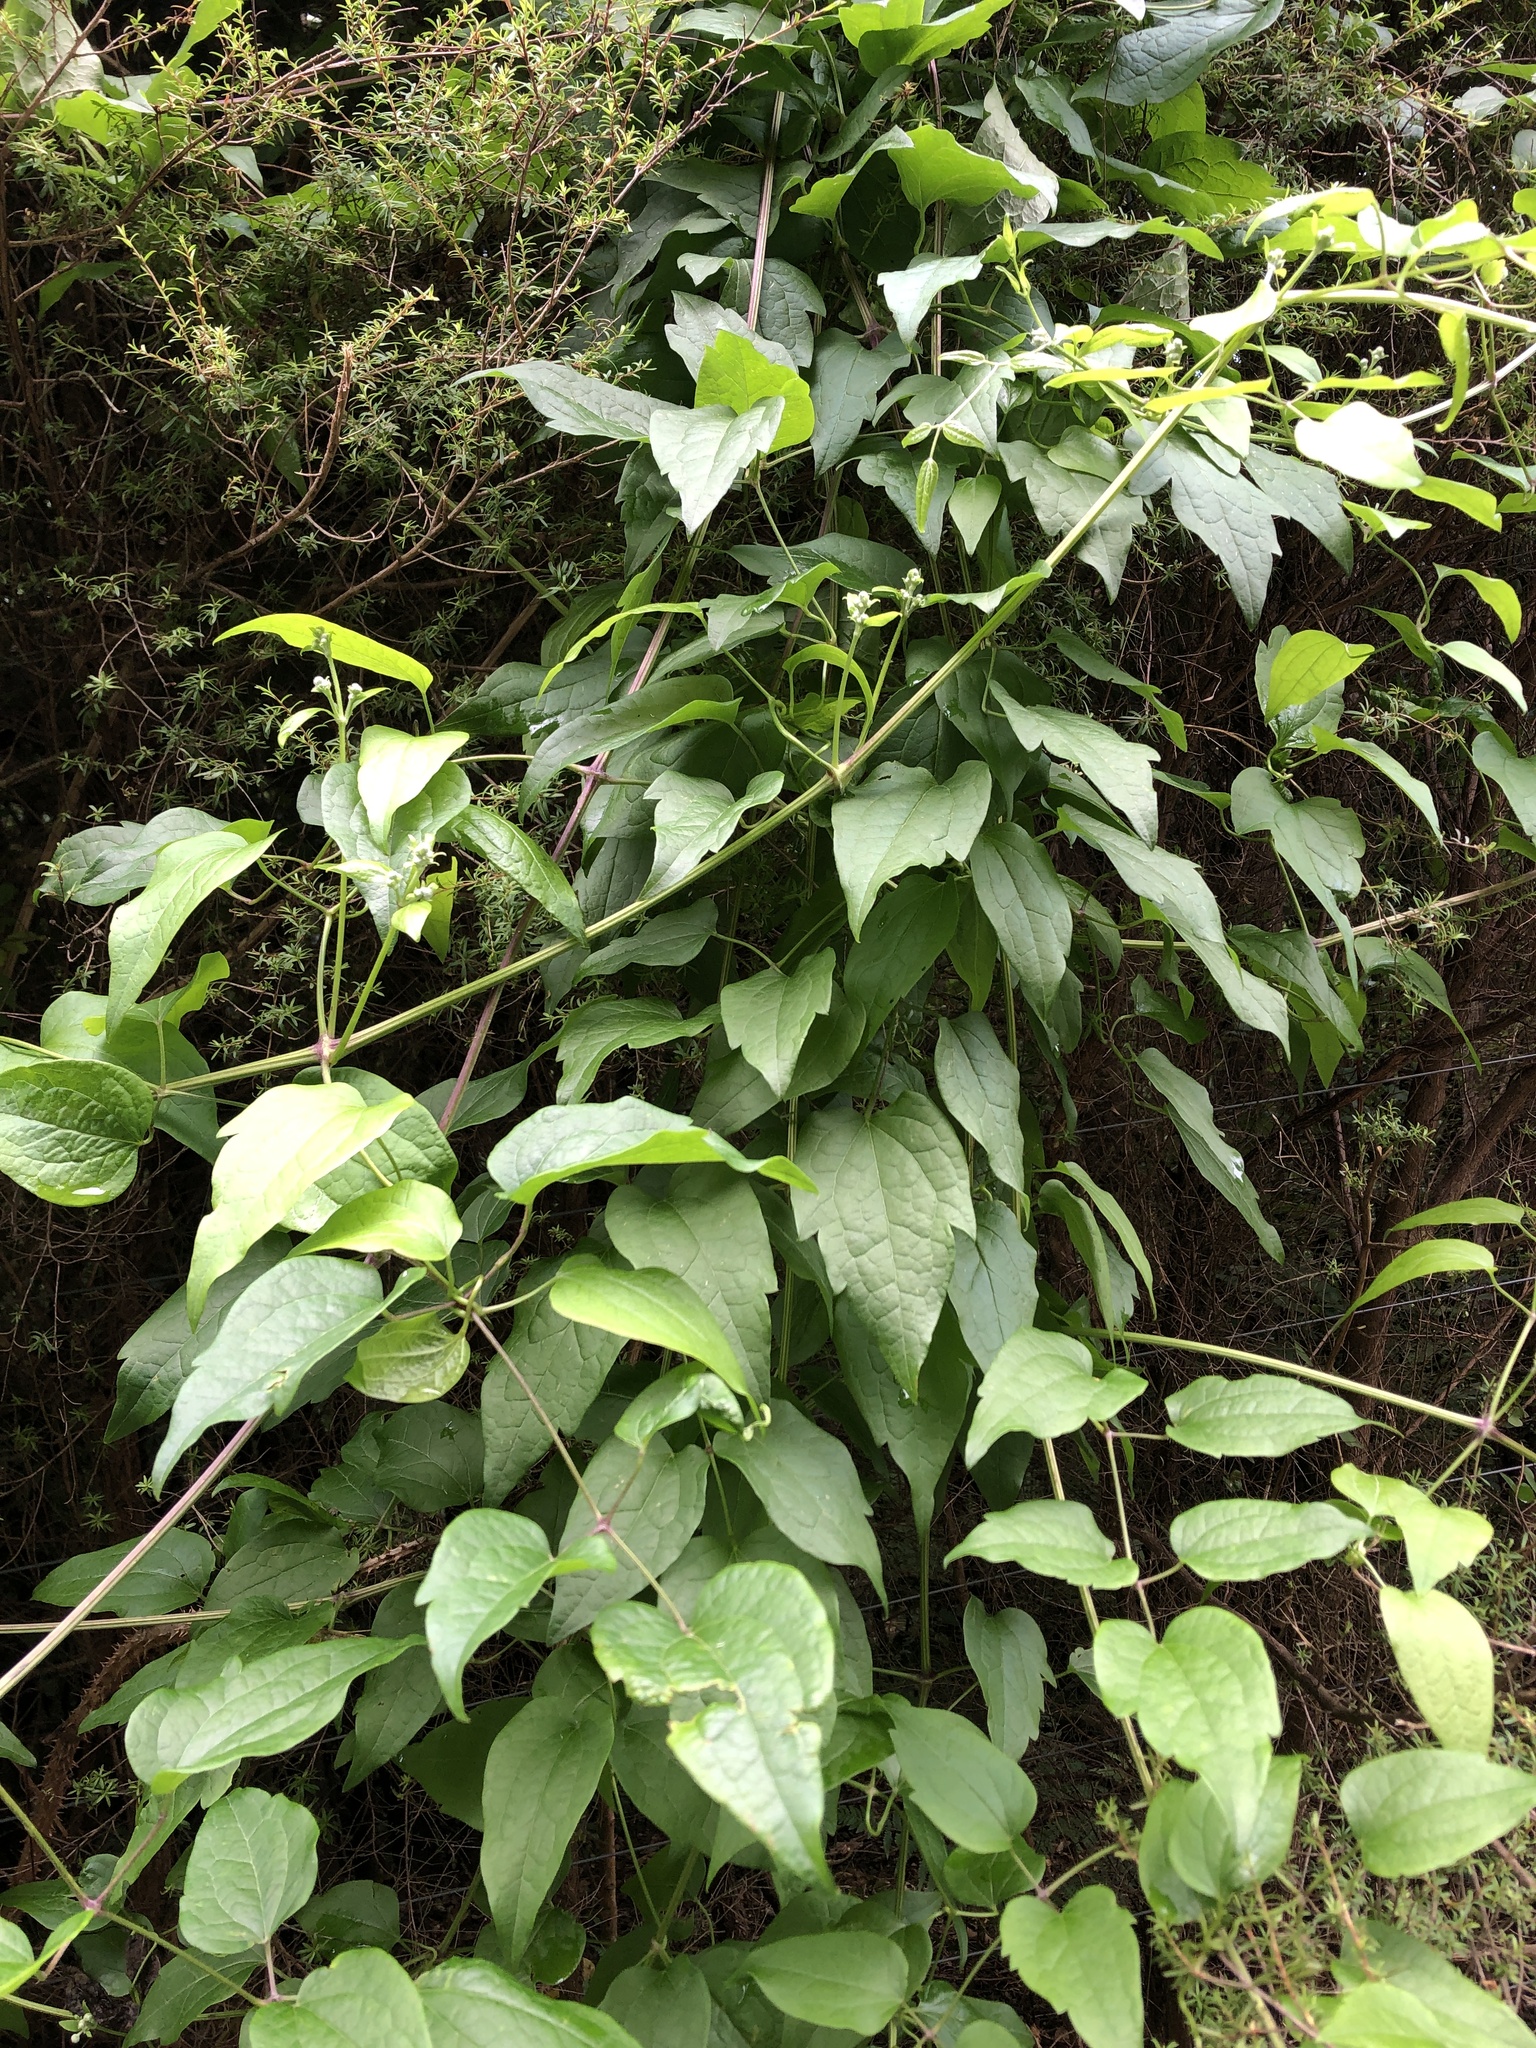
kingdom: Plantae
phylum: Tracheophyta
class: Magnoliopsida
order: Ranunculales
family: Ranunculaceae
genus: Clematis
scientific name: Clematis vitalba
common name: Evergreen clematis
